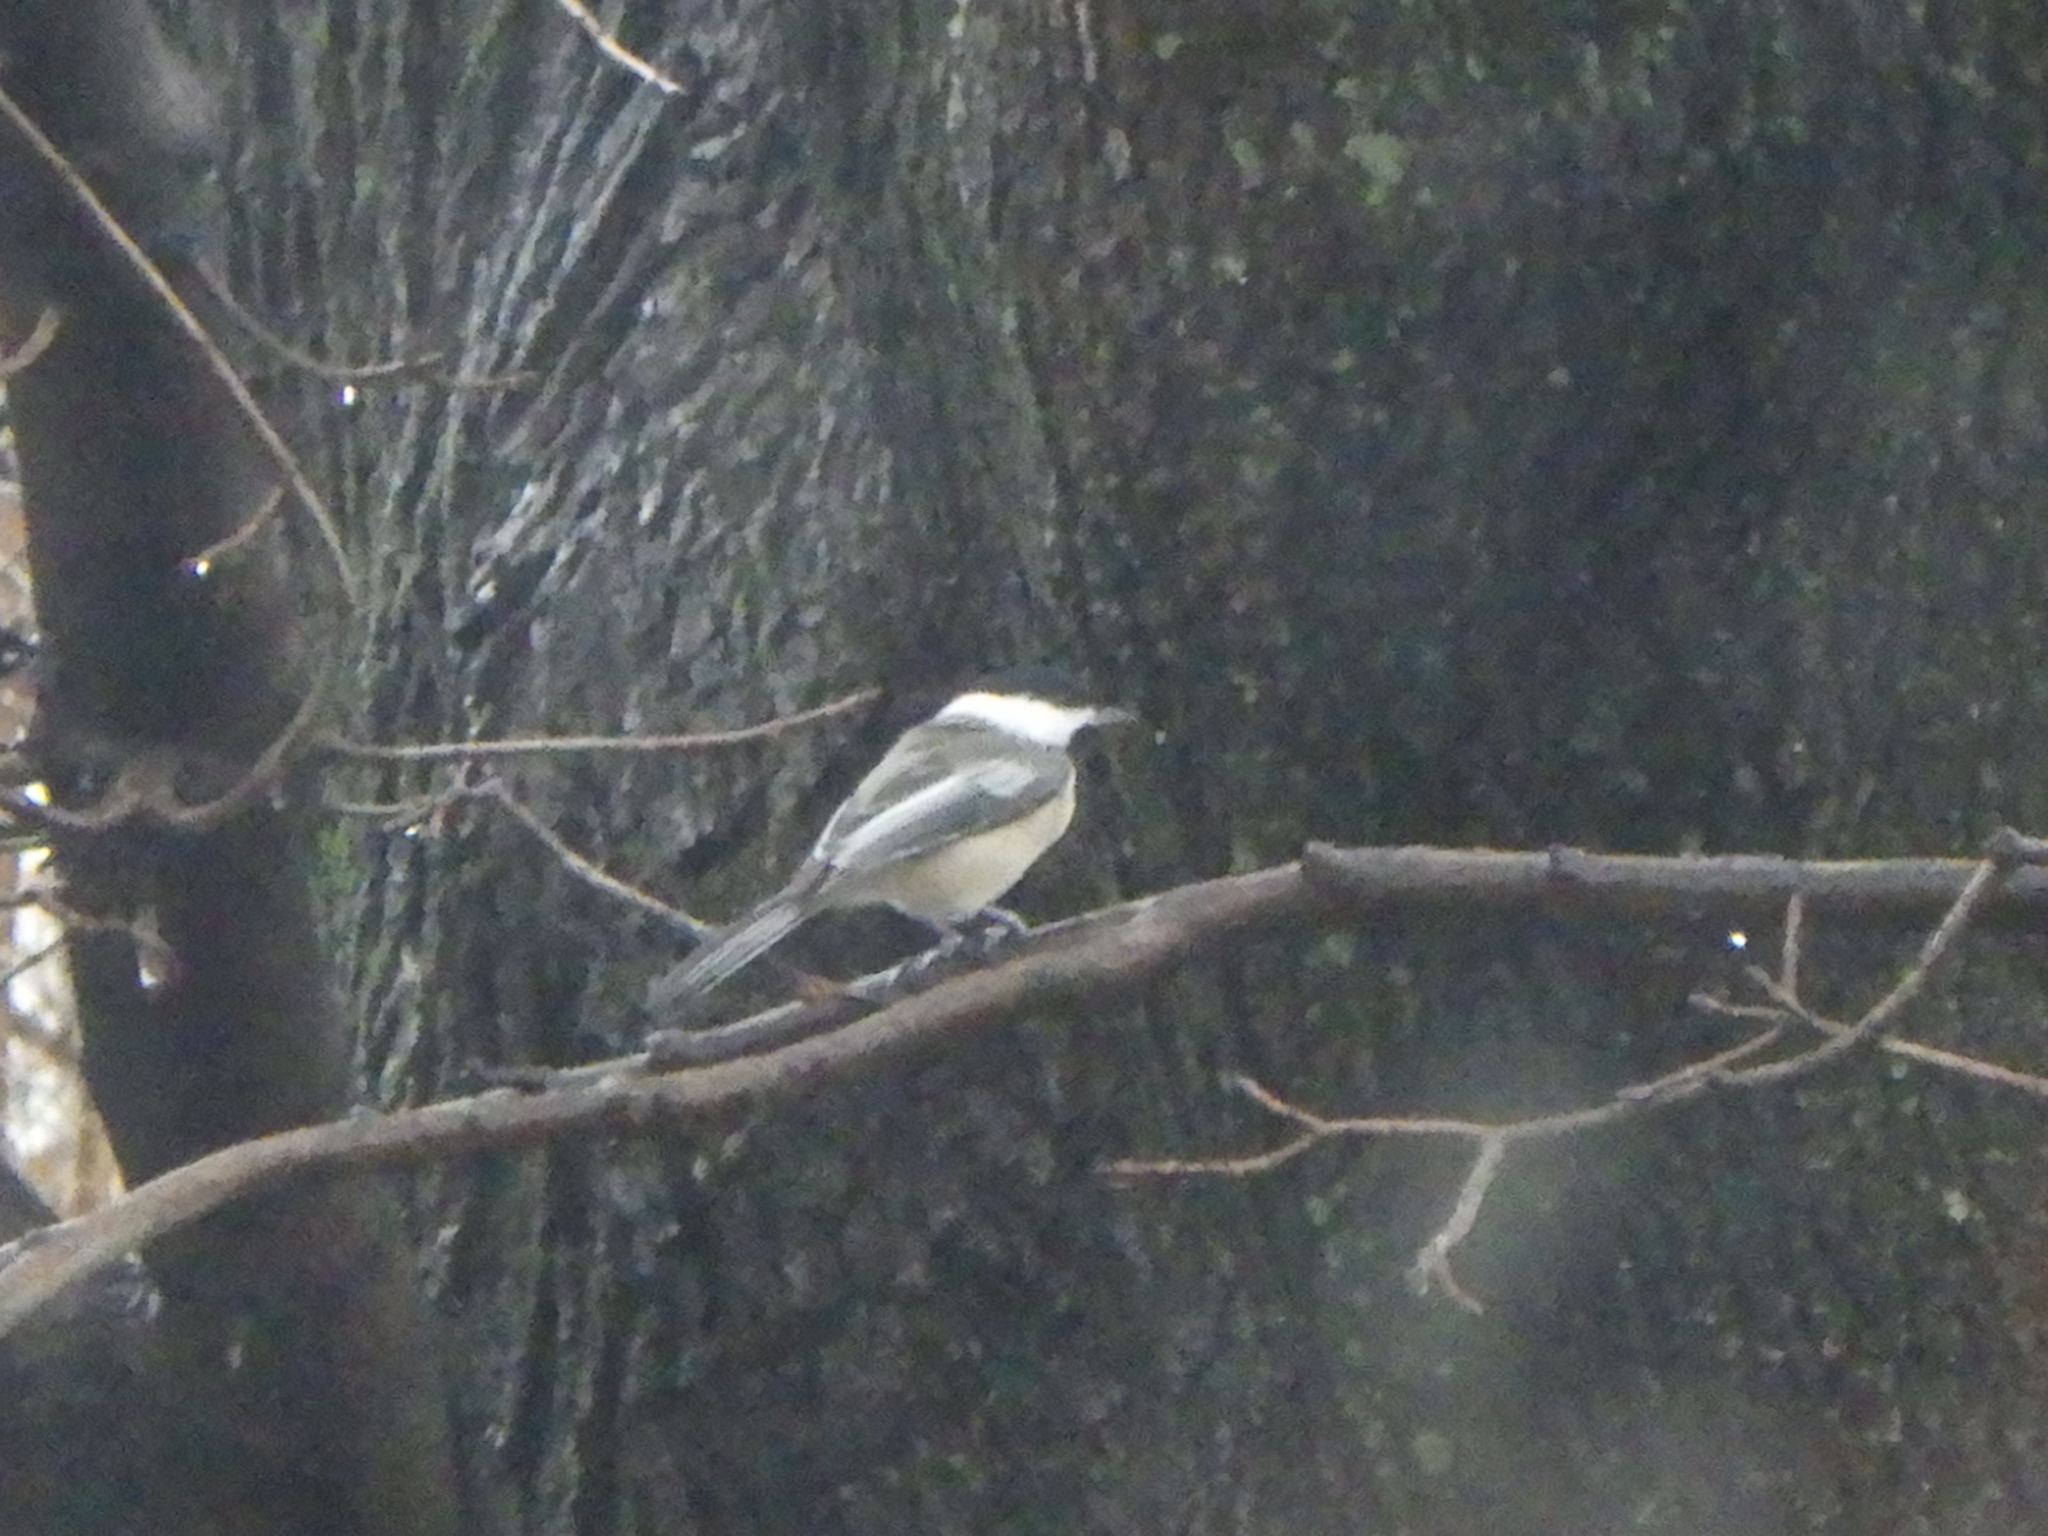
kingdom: Animalia
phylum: Chordata
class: Aves
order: Passeriformes
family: Paridae
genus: Poecile
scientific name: Poecile atricapillus
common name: Black-capped chickadee
